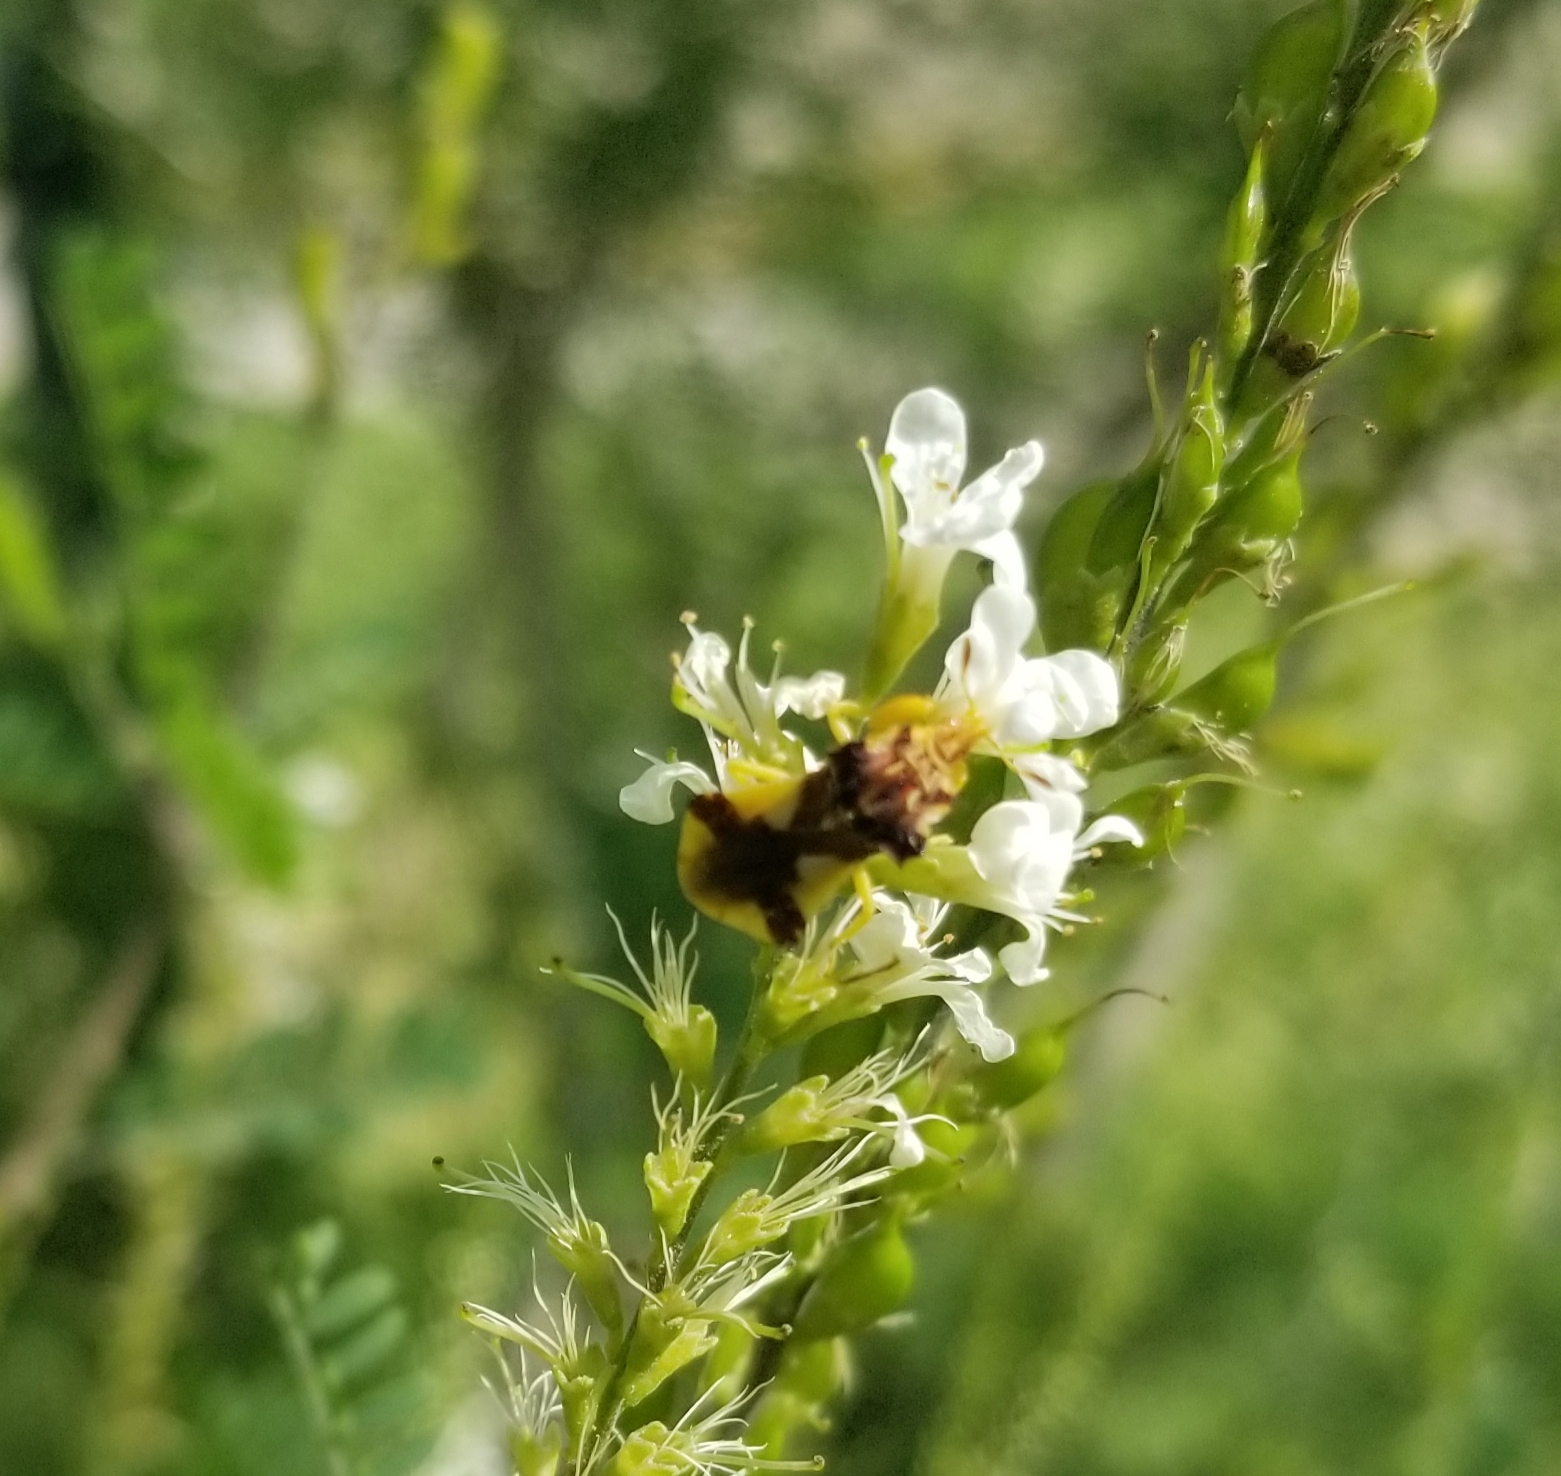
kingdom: Animalia
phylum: Arthropoda
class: Insecta
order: Hemiptera
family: Reduviidae
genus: Phymata
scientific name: Phymata americana
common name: Jagged ambush bug
